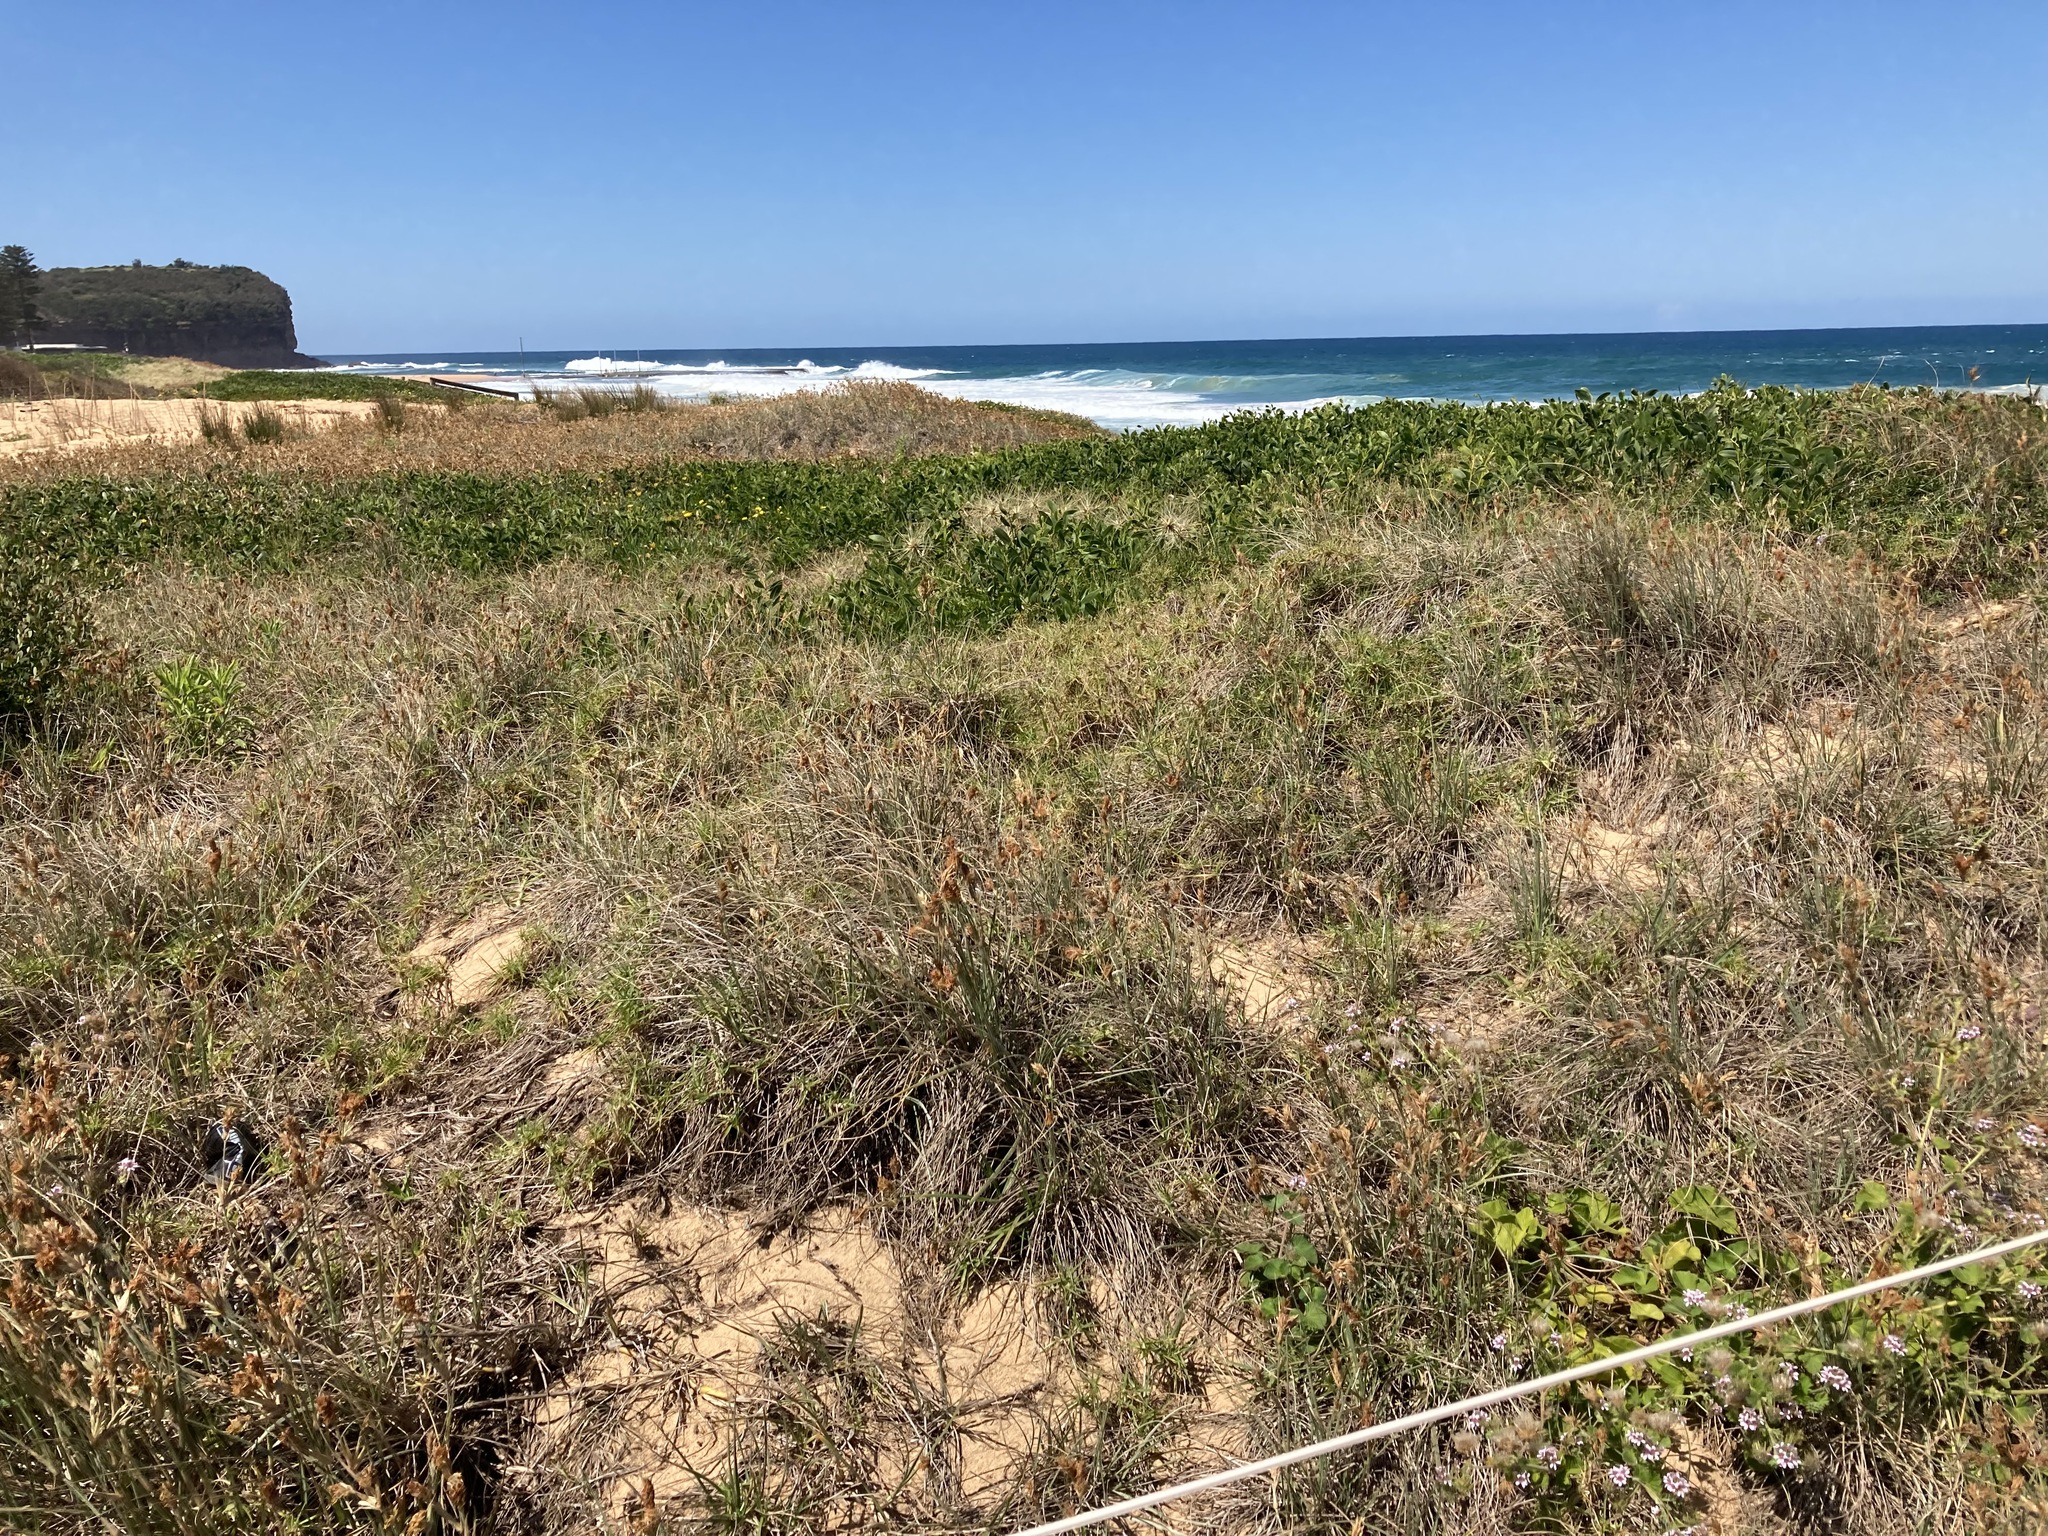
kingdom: Plantae
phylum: Tracheophyta
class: Liliopsida
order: Poales
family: Poaceae
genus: Spinifex
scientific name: Spinifex sericeus
